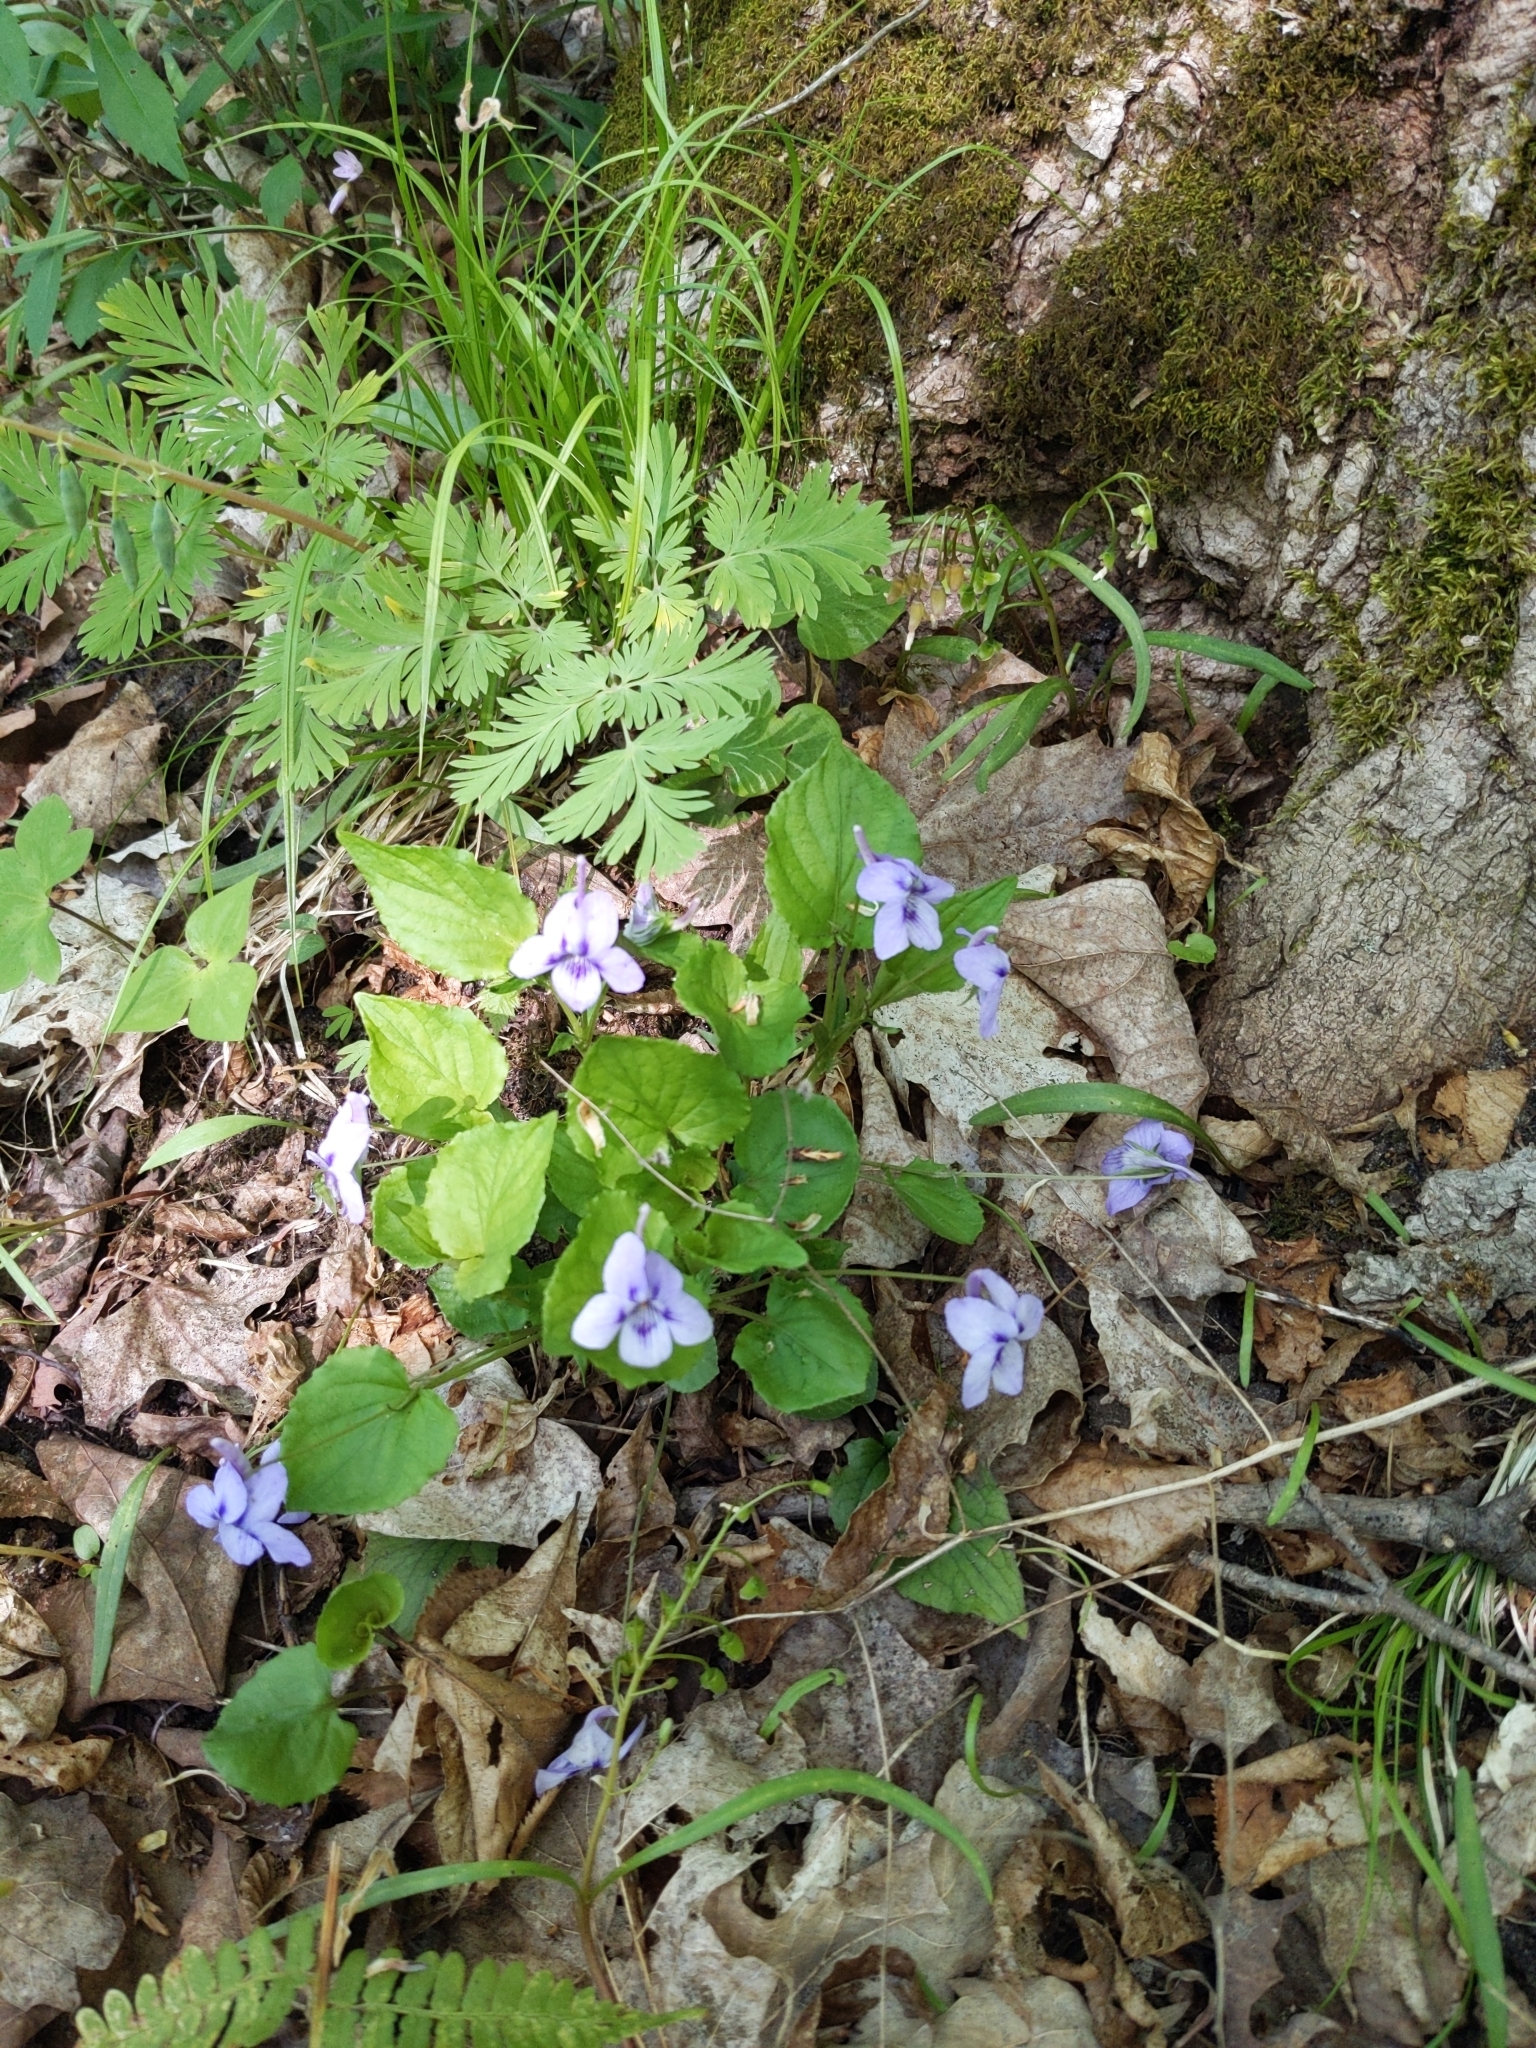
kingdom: Plantae
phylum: Tracheophyta
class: Magnoliopsida
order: Malpighiales
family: Violaceae
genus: Viola
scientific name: Viola rostrata
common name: Long-spur violet
